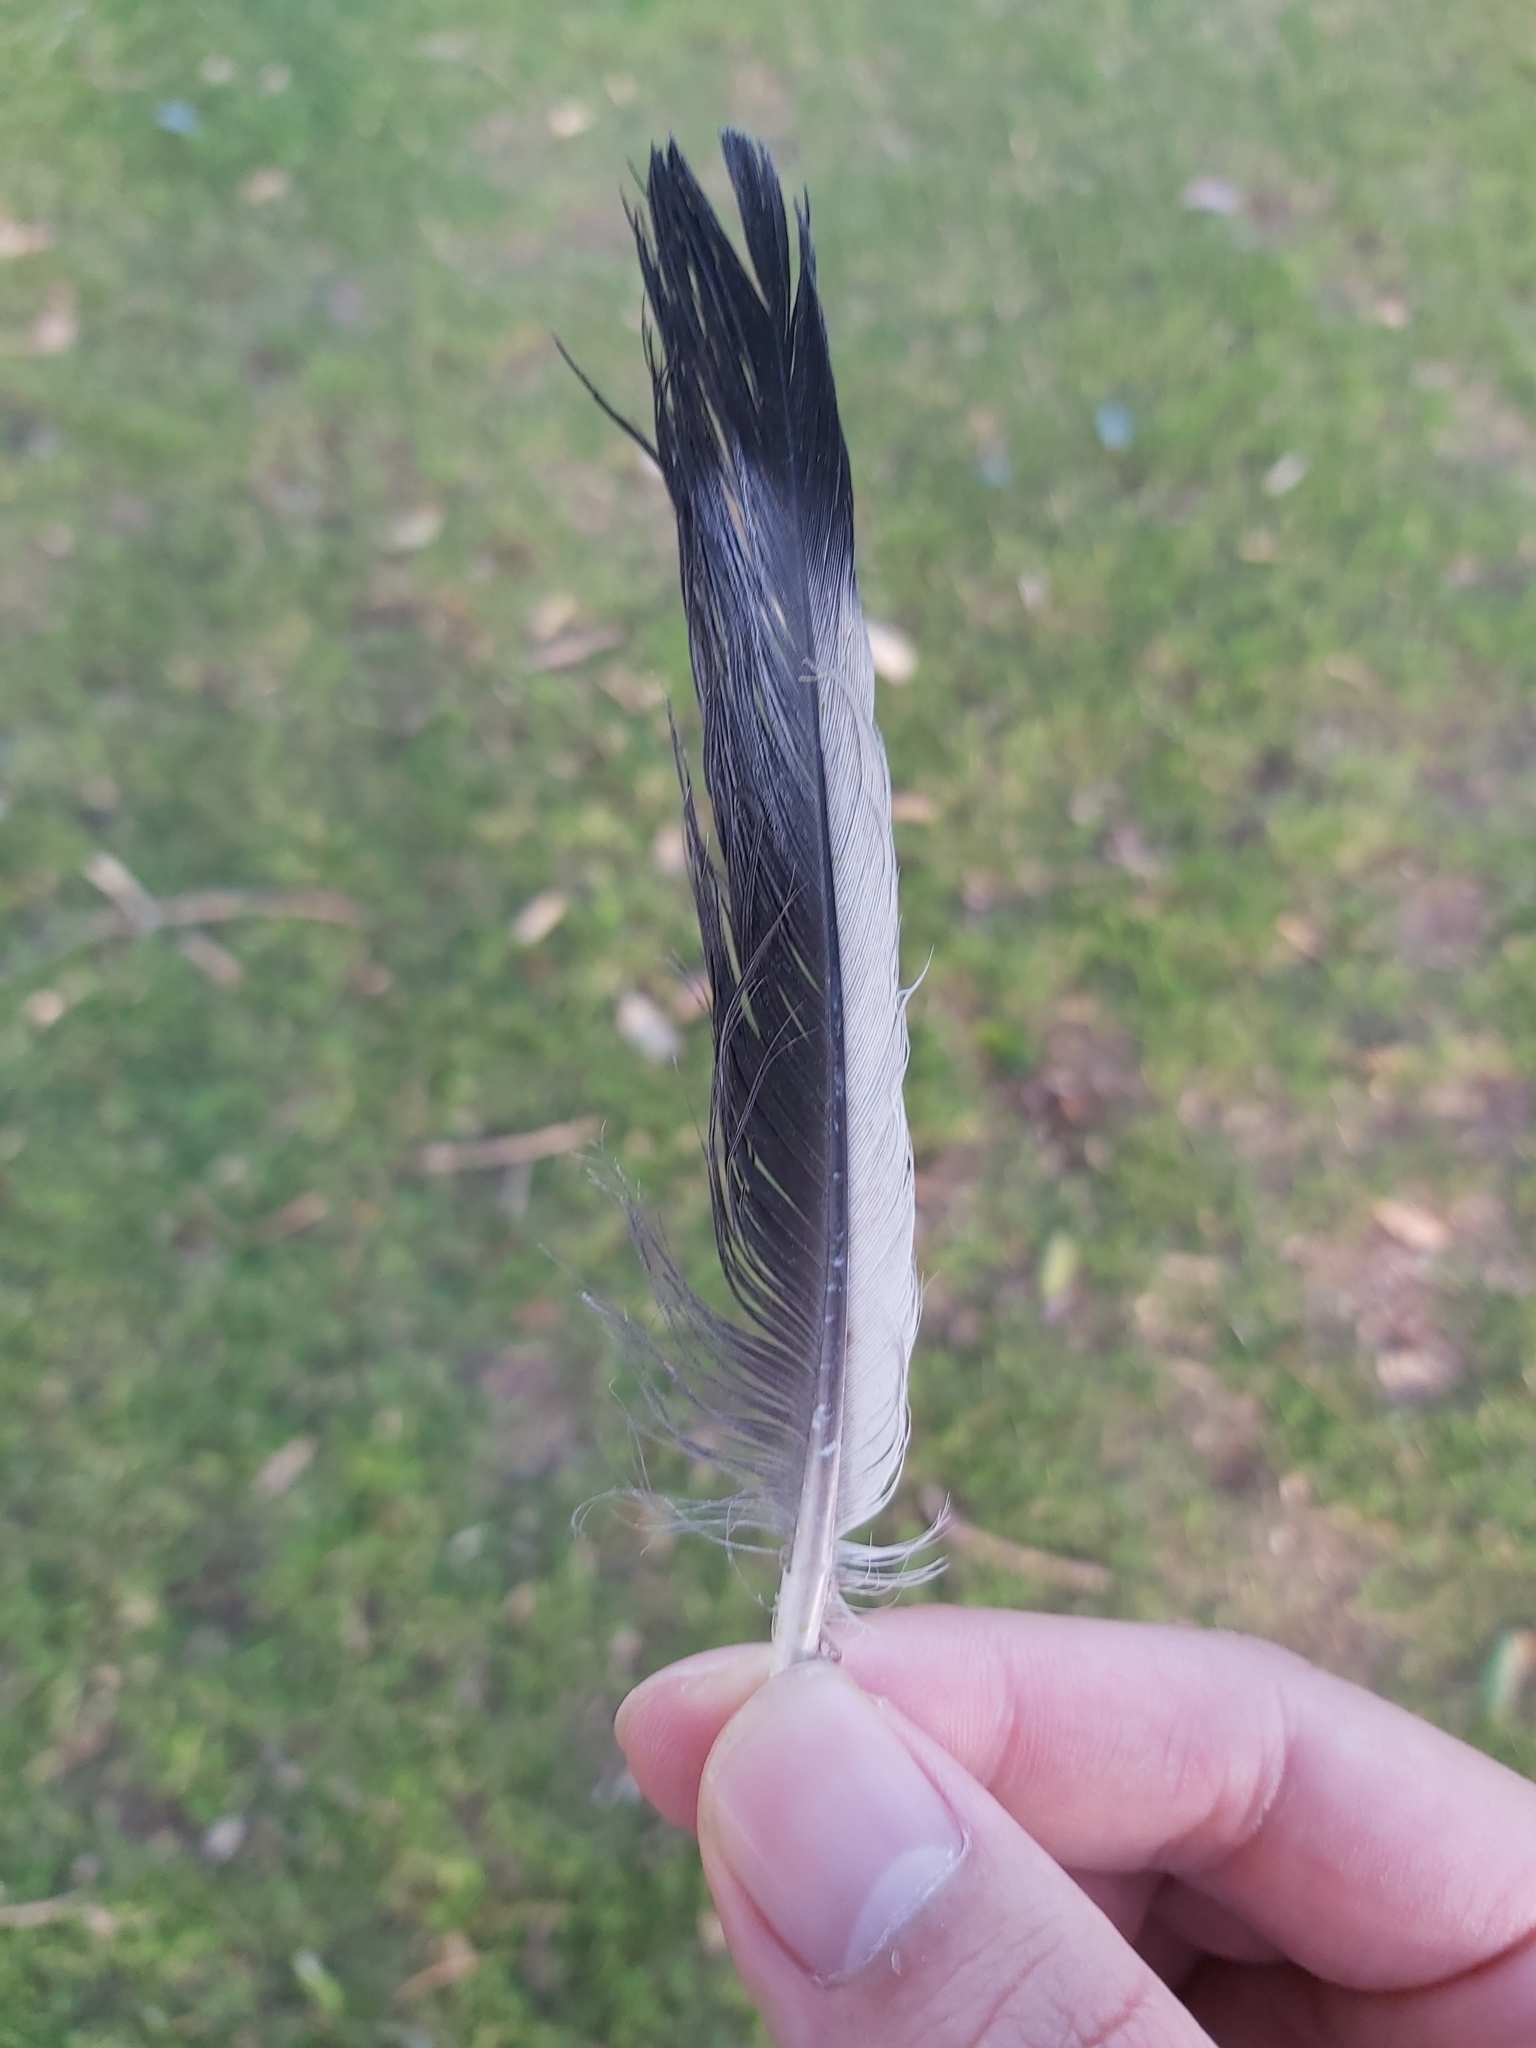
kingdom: Animalia
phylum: Chordata
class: Aves
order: Columbiformes
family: Columbidae
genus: Columba
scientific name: Columba livia
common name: Rock pigeon
